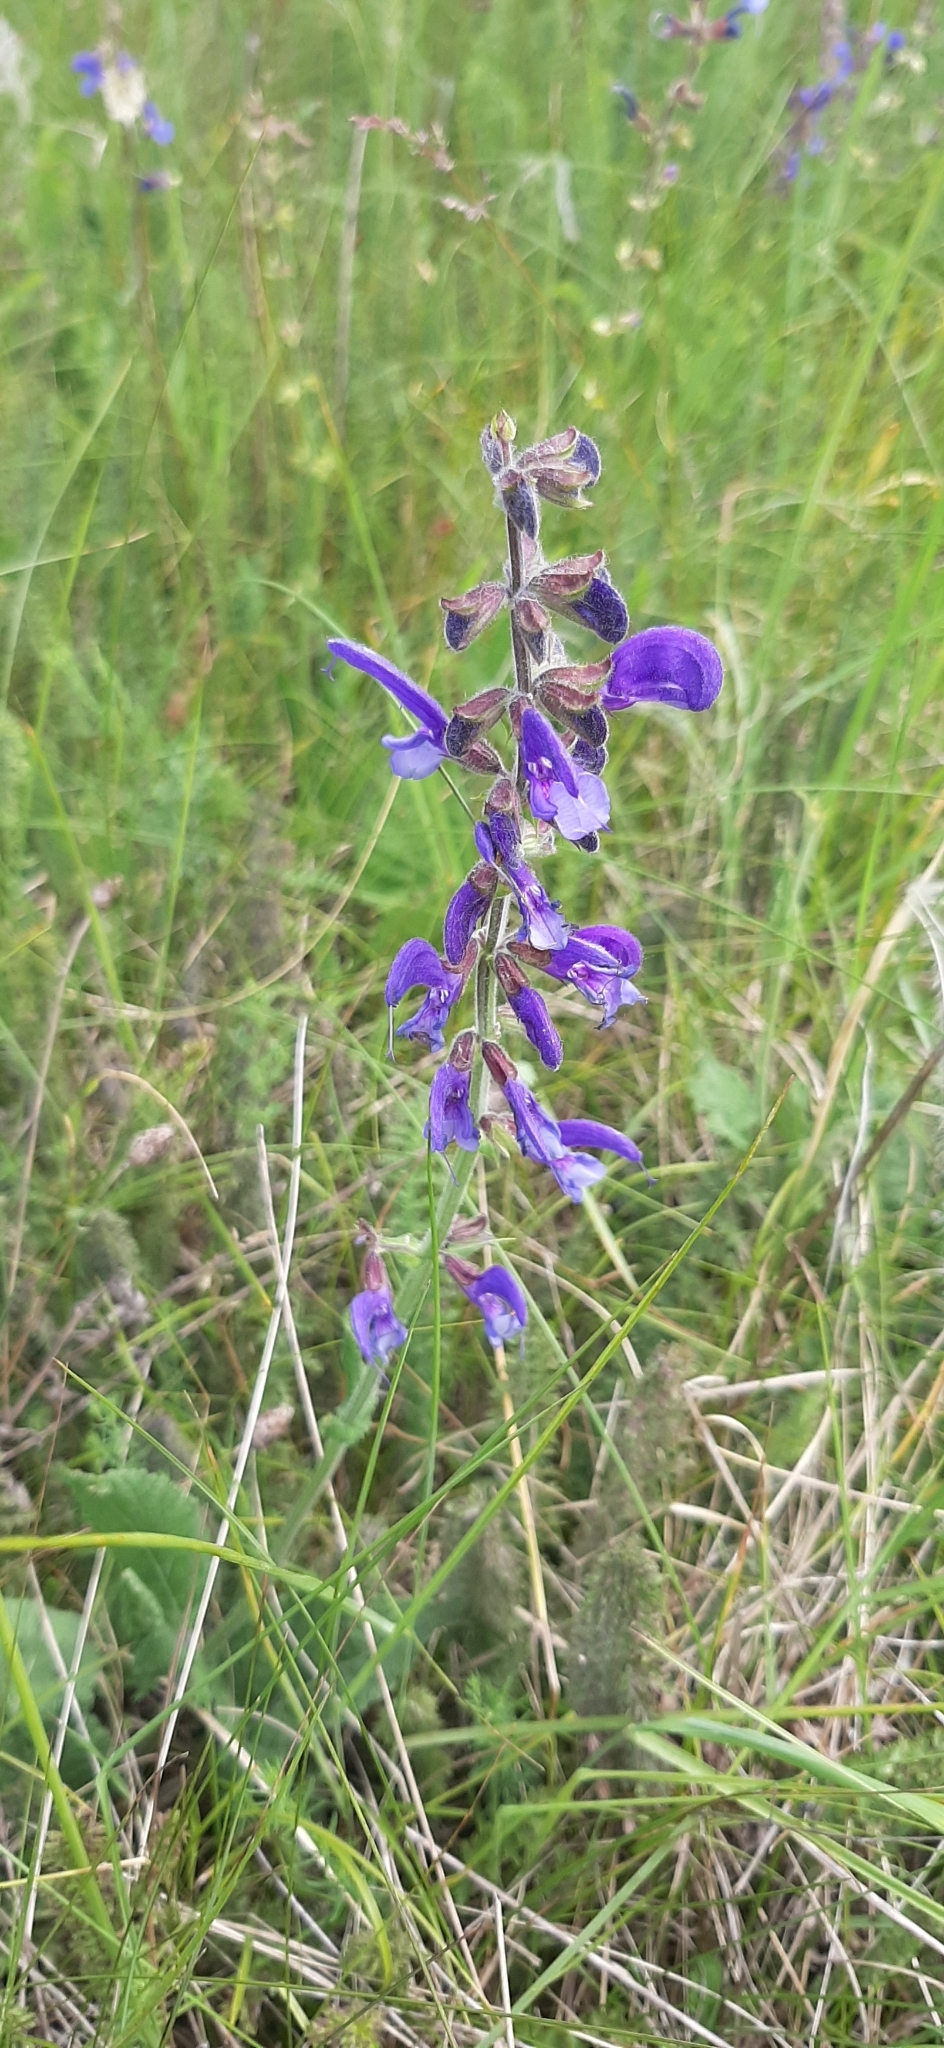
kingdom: Plantae
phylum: Tracheophyta
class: Magnoliopsida
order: Lamiales
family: Lamiaceae
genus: Salvia
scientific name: Salvia pratensis
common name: Meadow sage
